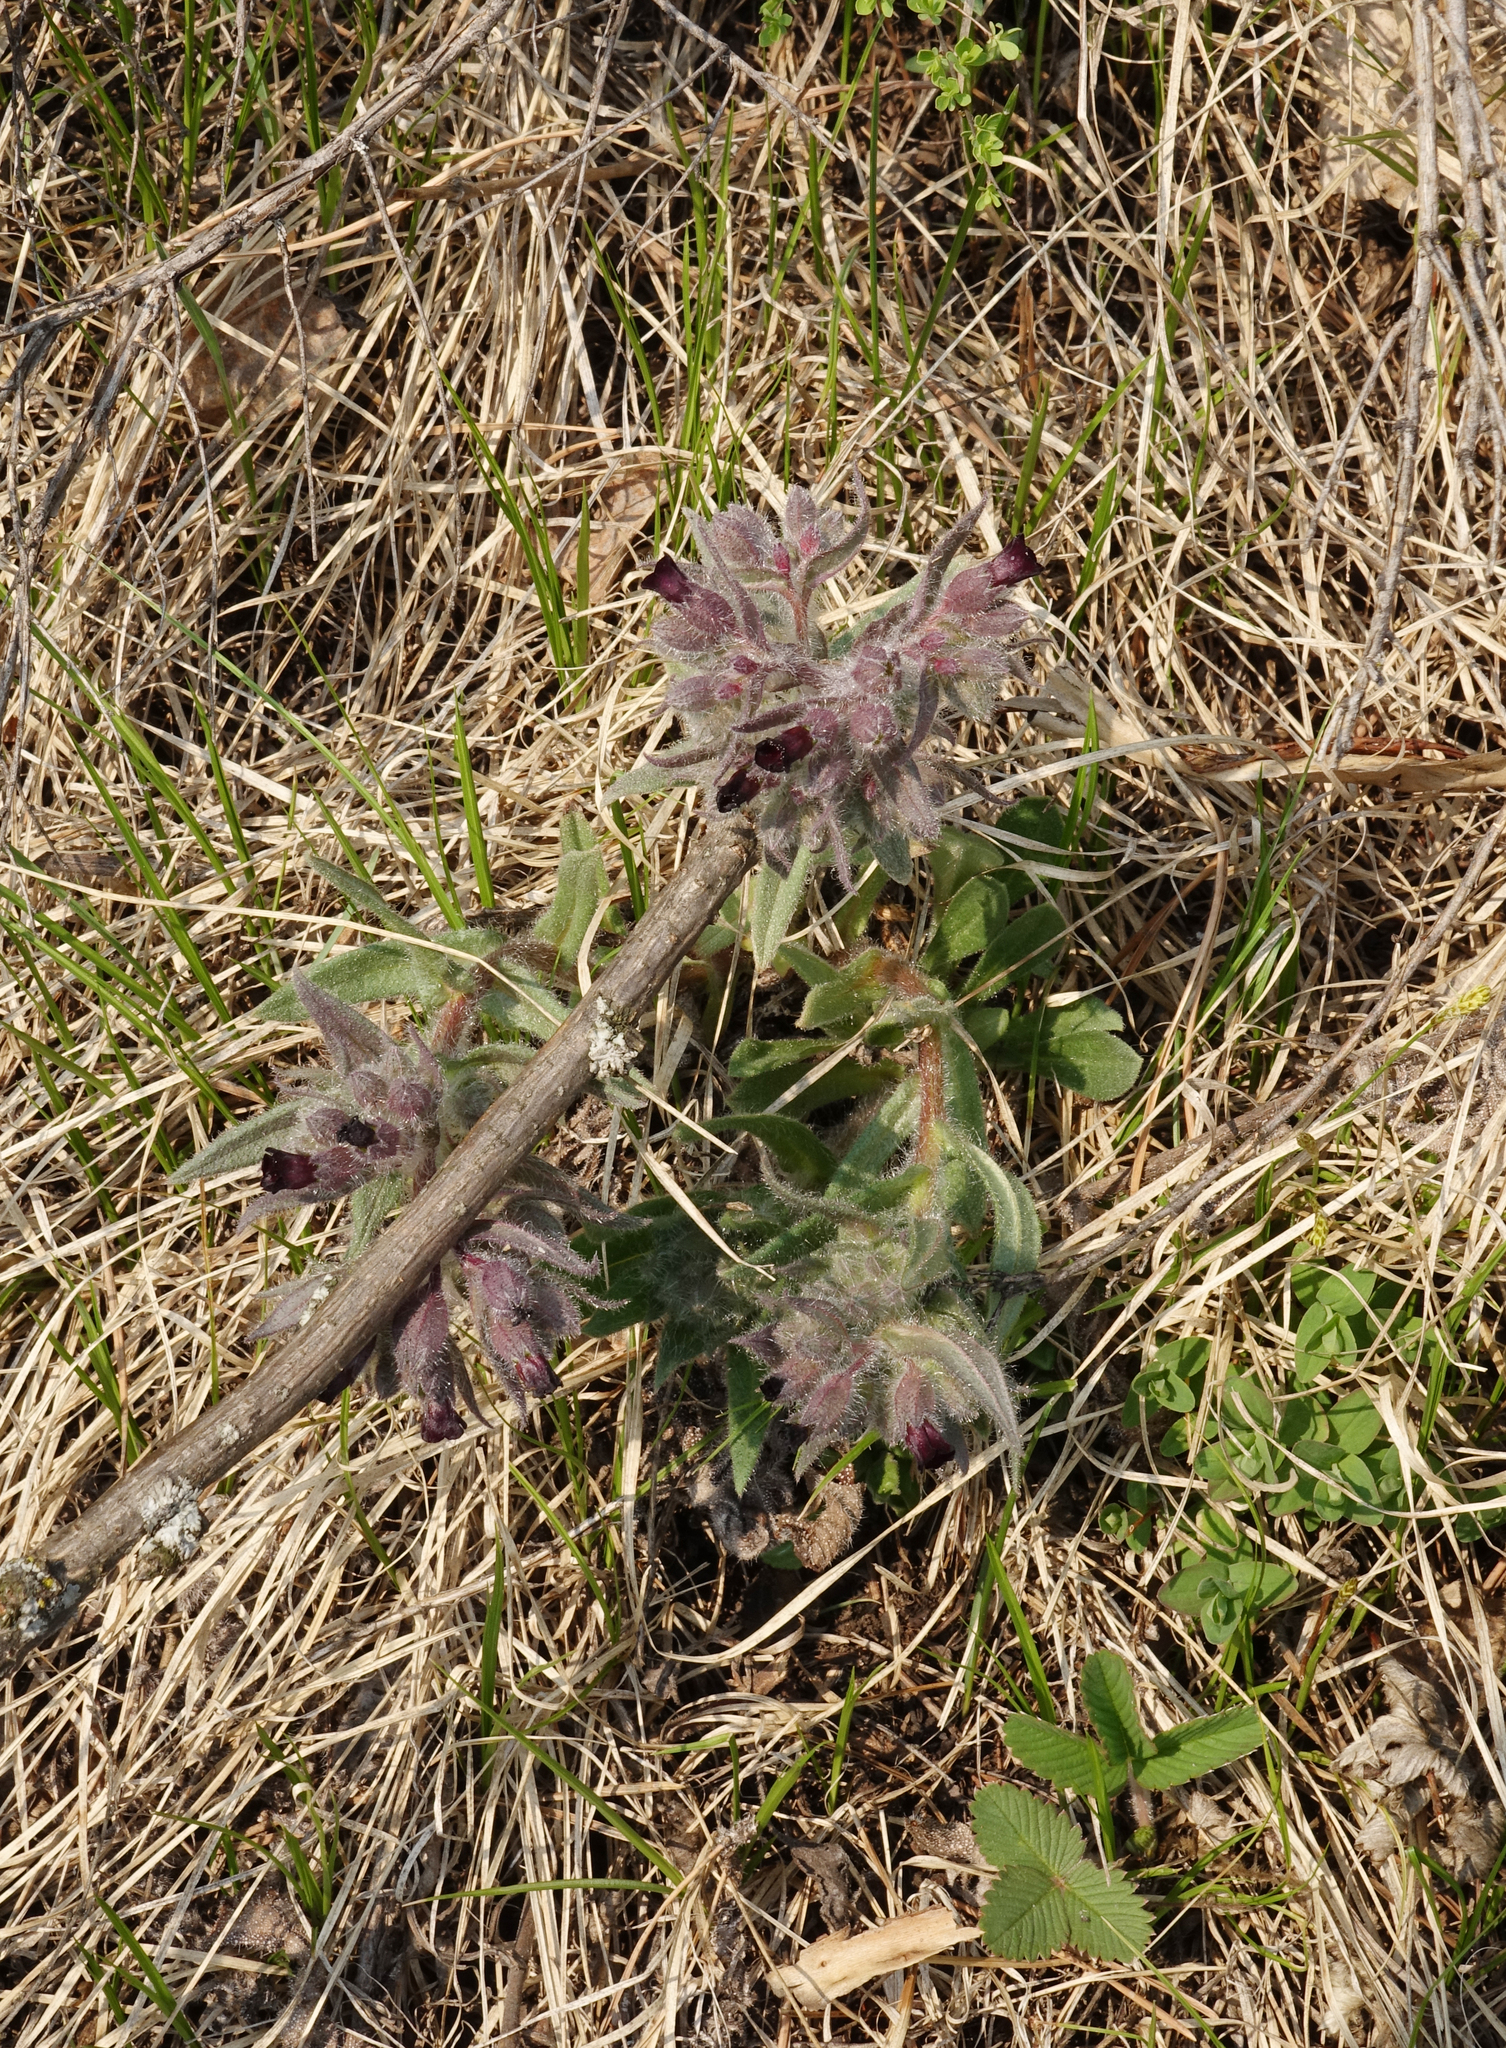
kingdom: Plantae
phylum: Tracheophyta
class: Magnoliopsida
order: Boraginales
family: Boraginaceae
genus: Nonea
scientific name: Nonea pulla
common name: Brown nonea
